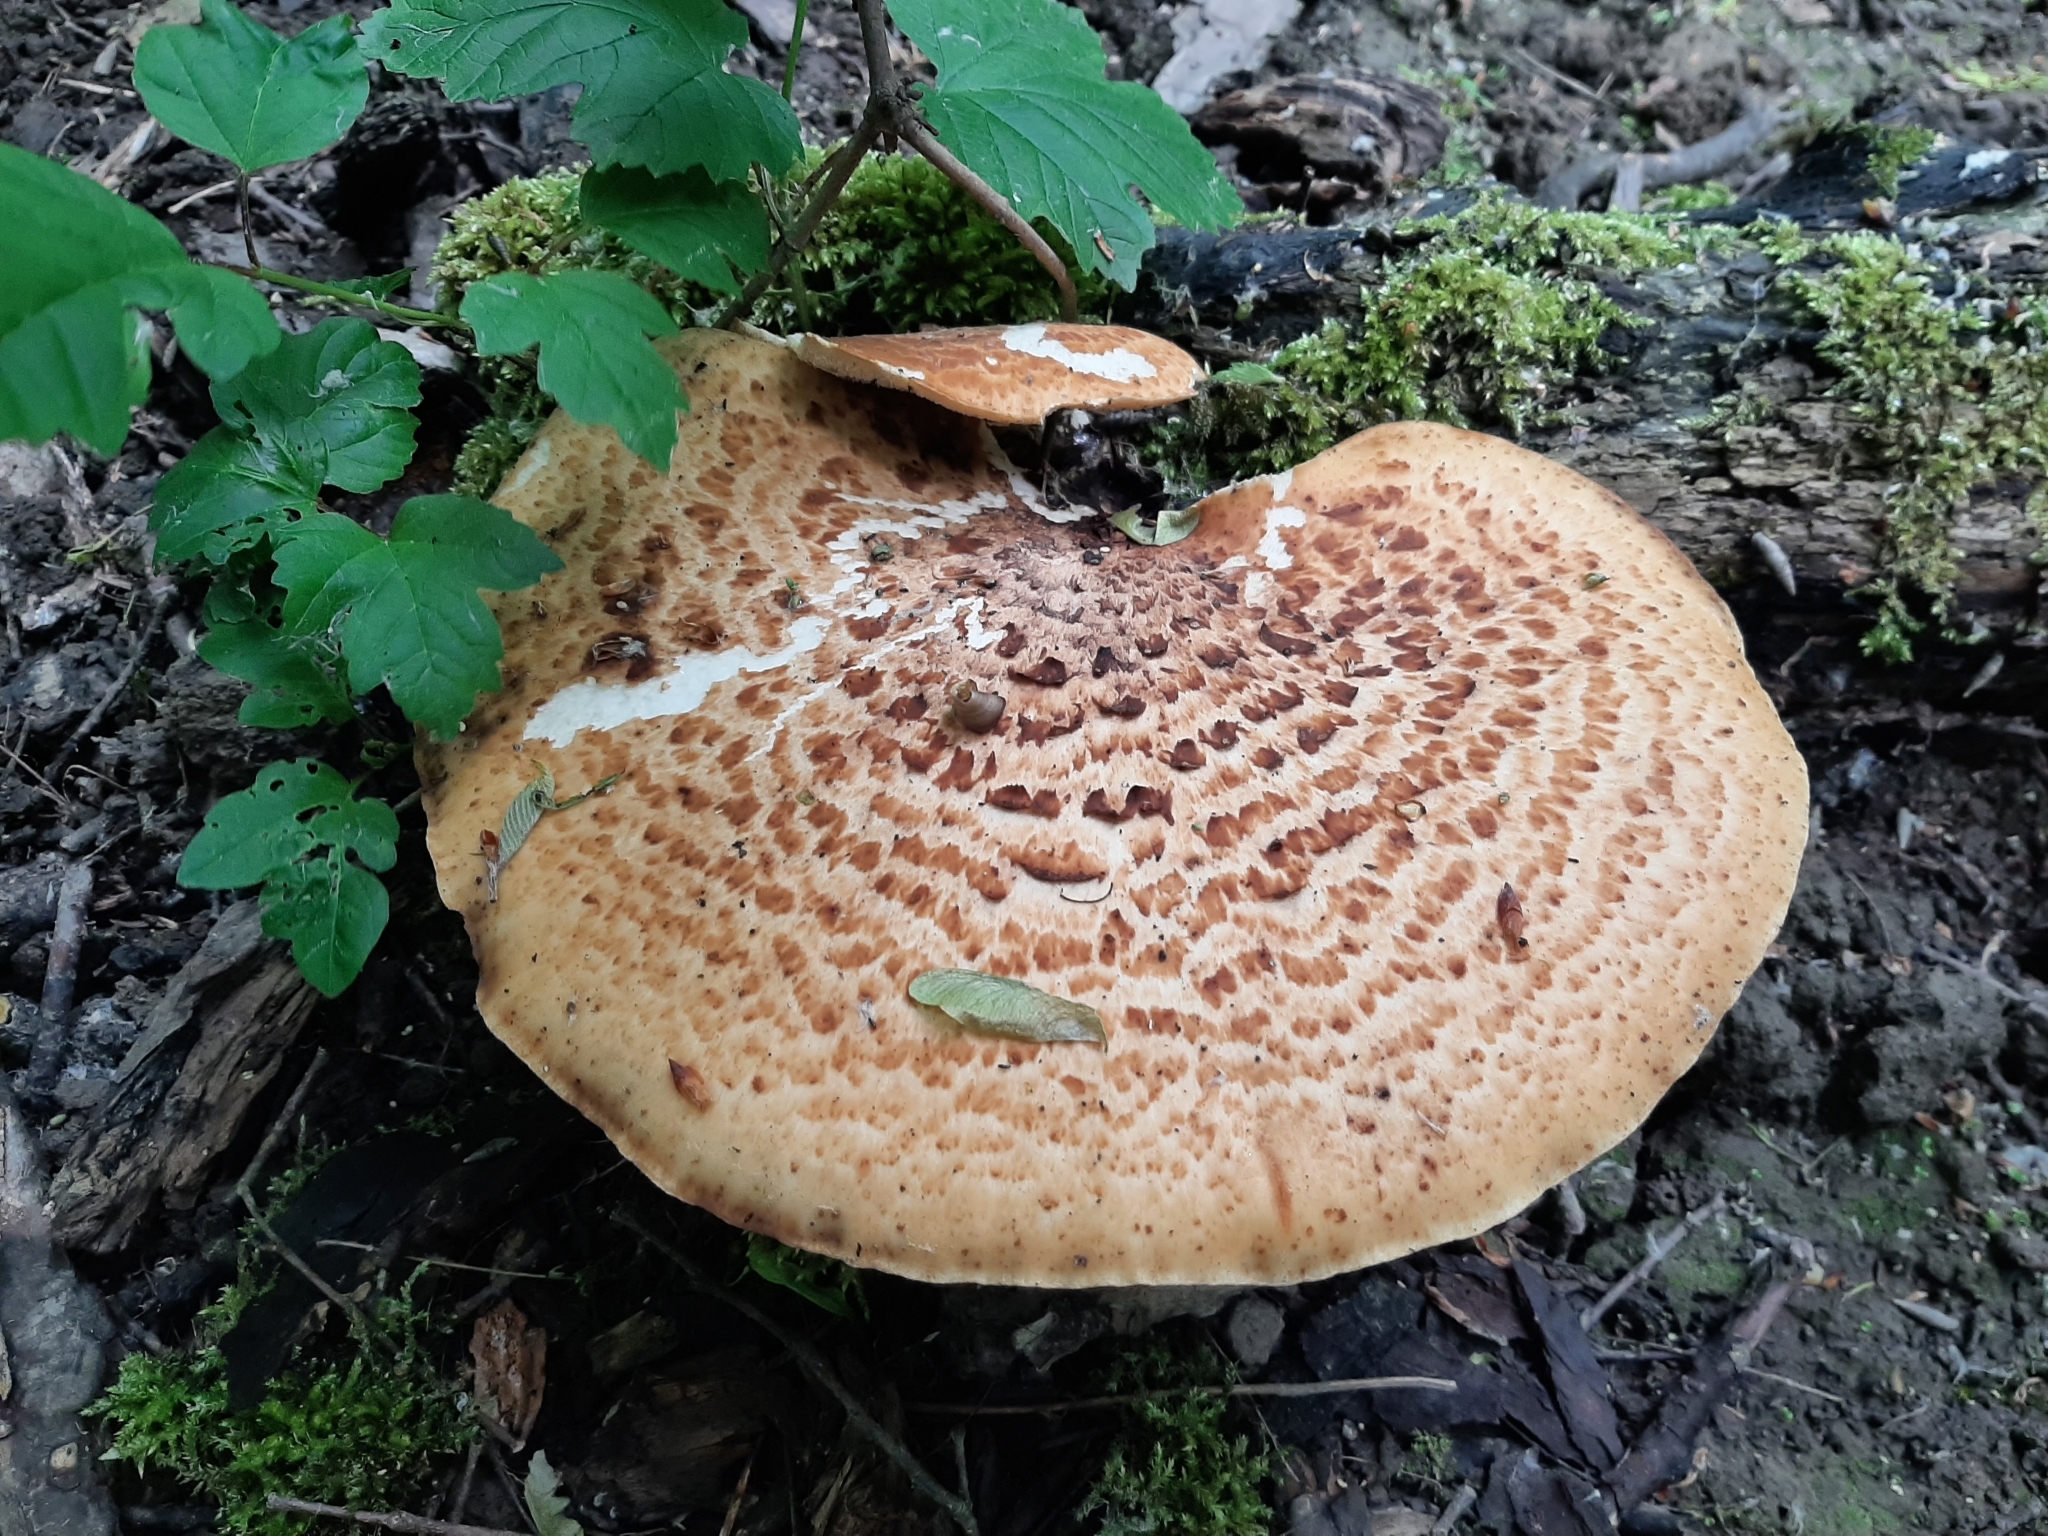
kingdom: Fungi
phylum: Basidiomycota
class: Agaricomycetes
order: Polyporales
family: Polyporaceae
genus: Cerioporus
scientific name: Cerioporus squamosus
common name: Dryad's saddle
